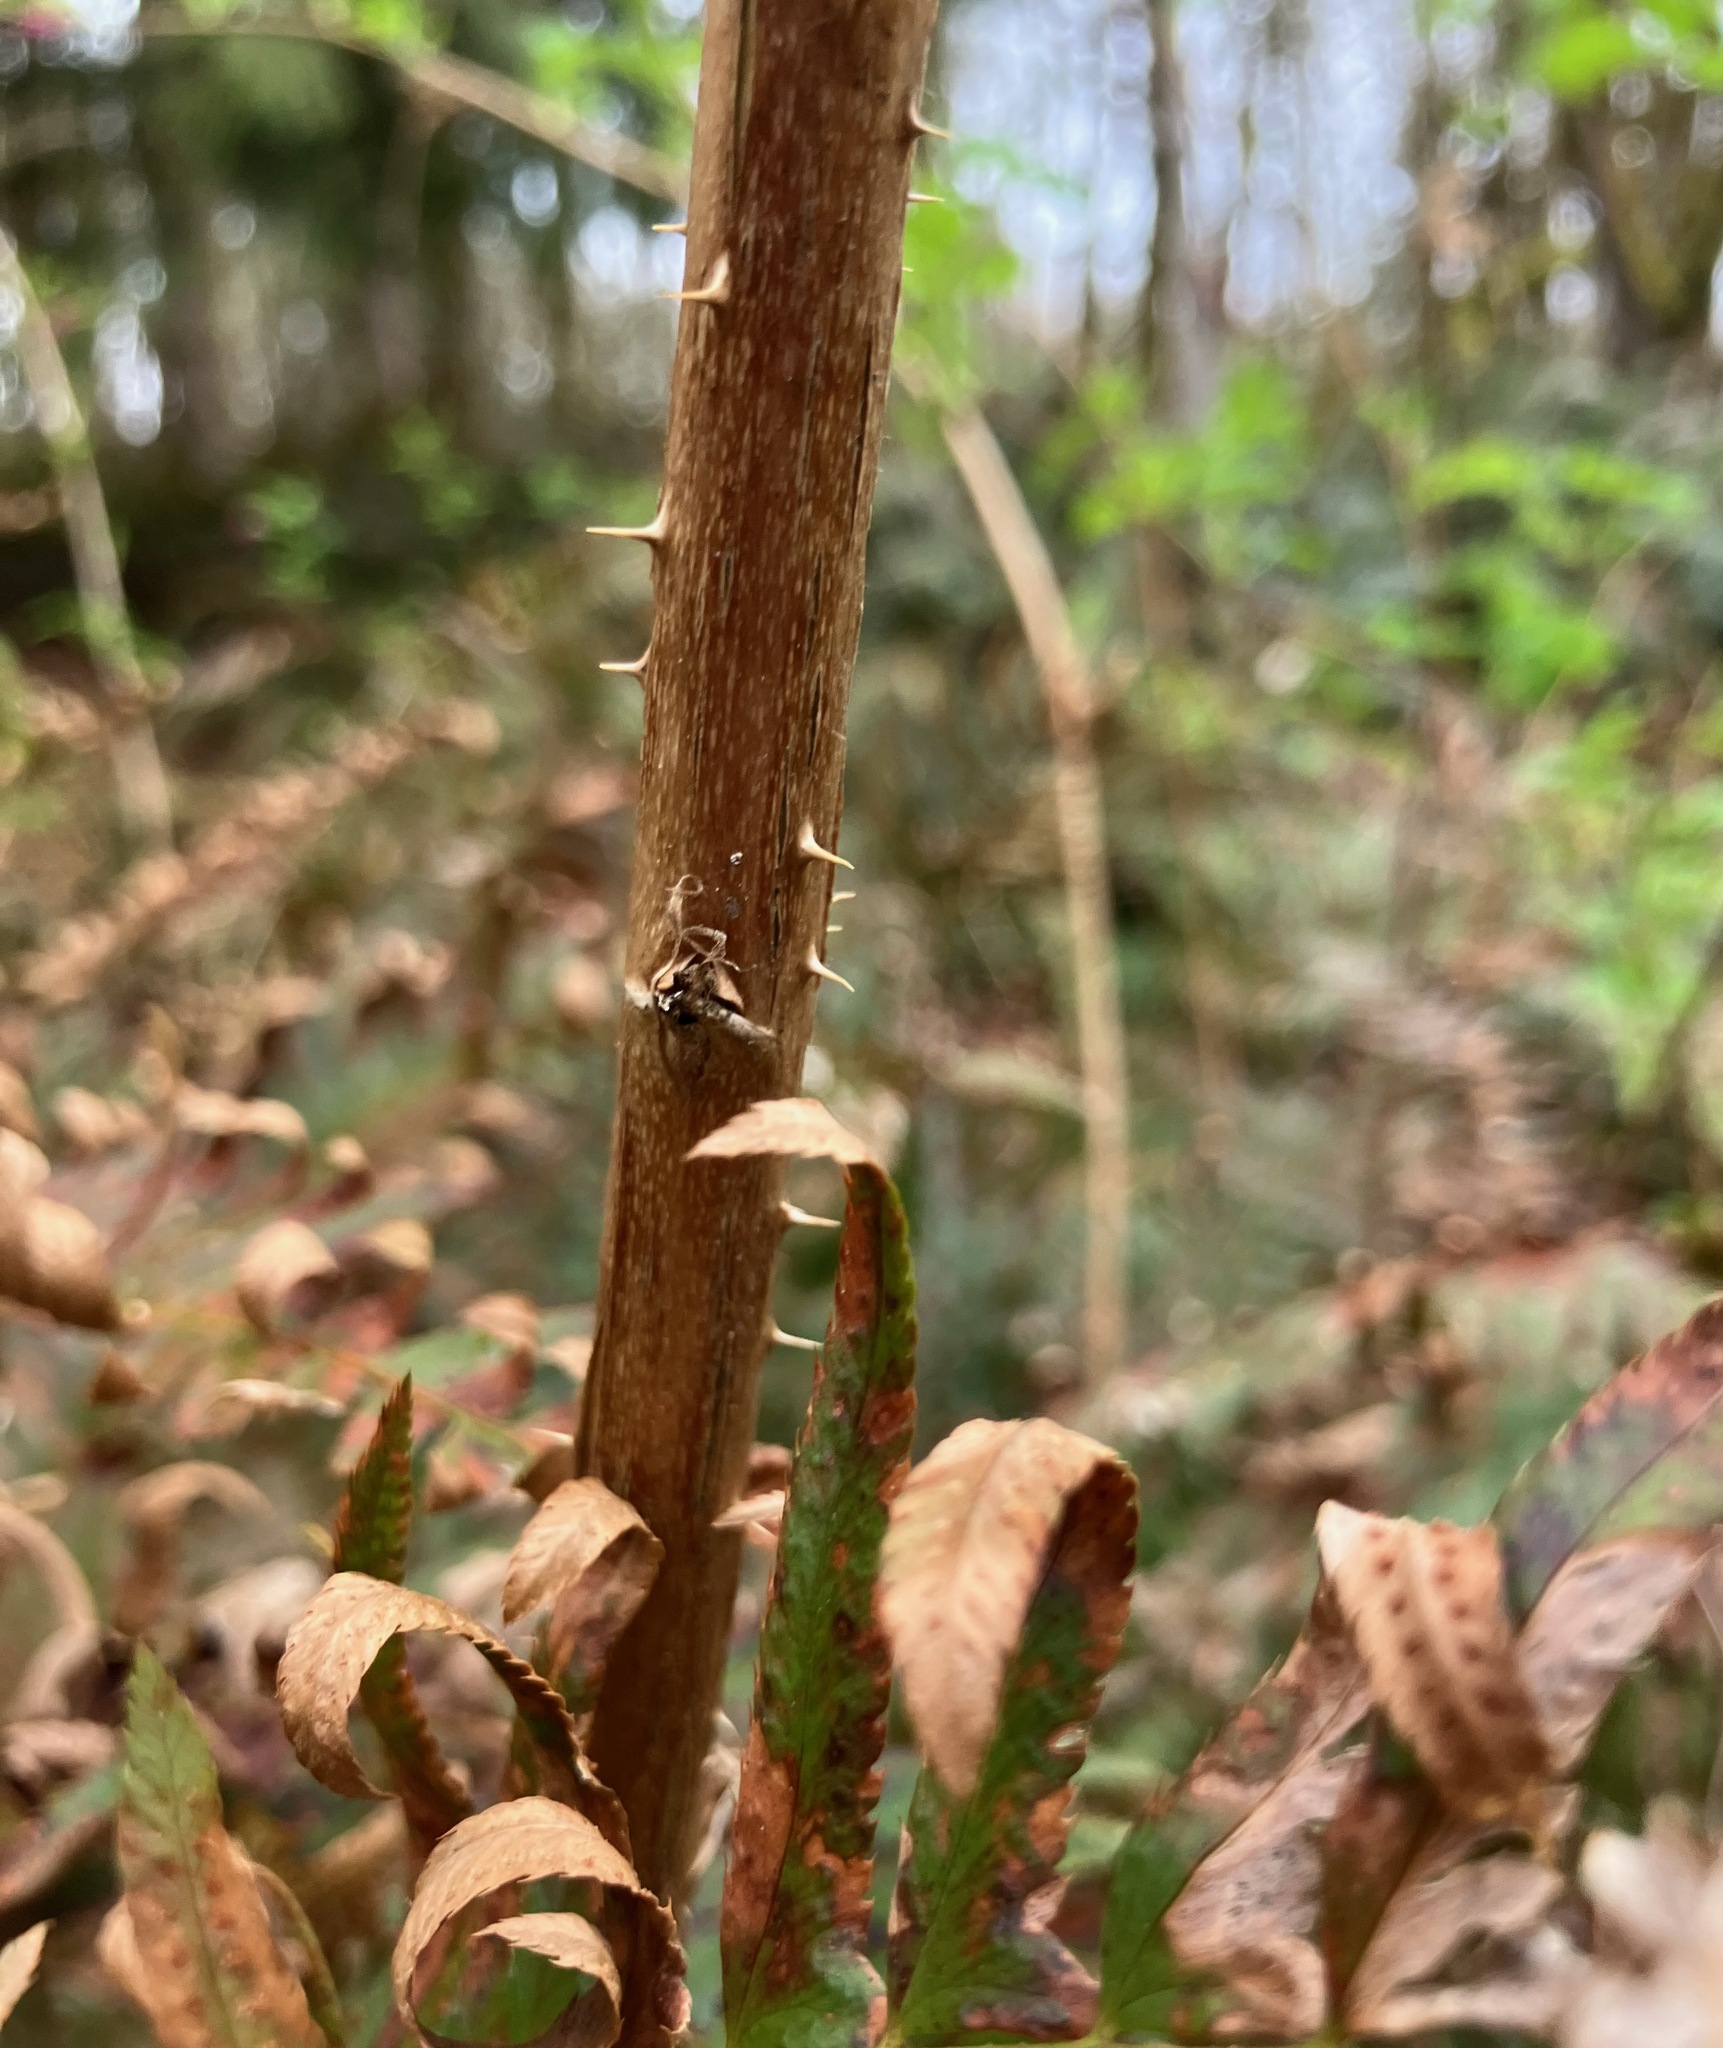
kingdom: Plantae
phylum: Tracheophyta
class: Magnoliopsida
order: Rosales
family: Rosaceae
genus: Rubus
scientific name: Rubus spectabilis
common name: Salmonberry
